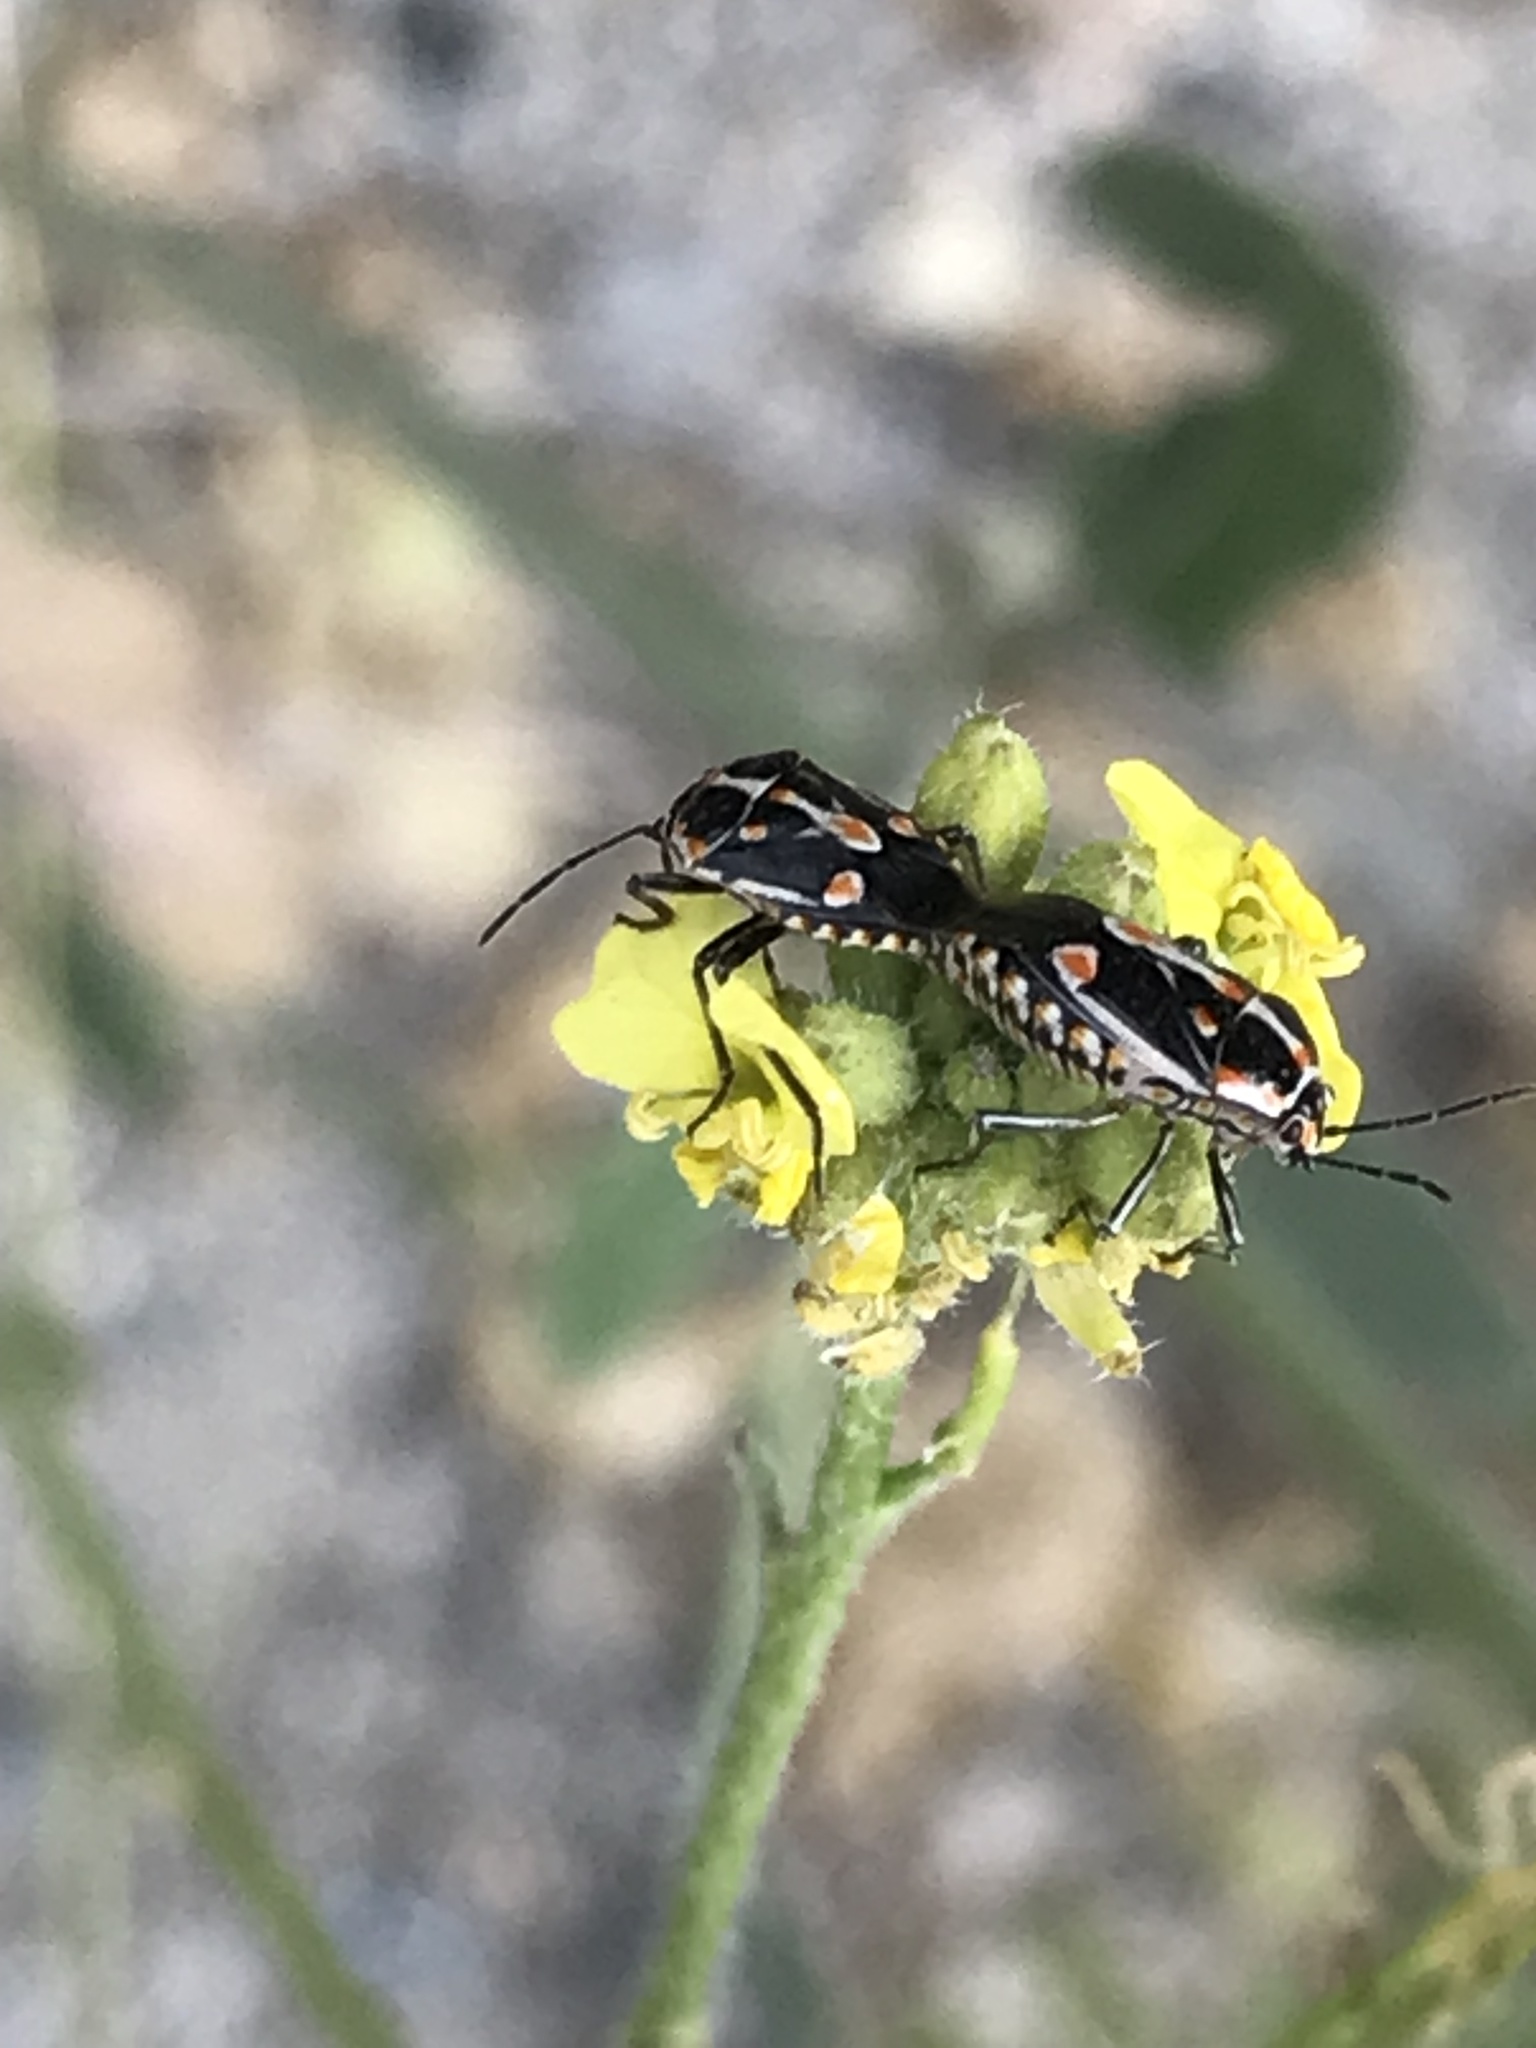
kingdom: Animalia
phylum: Arthropoda
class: Insecta
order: Hemiptera
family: Pentatomidae
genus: Bagrada
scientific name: Bagrada hilaris
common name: Bagrada bug
